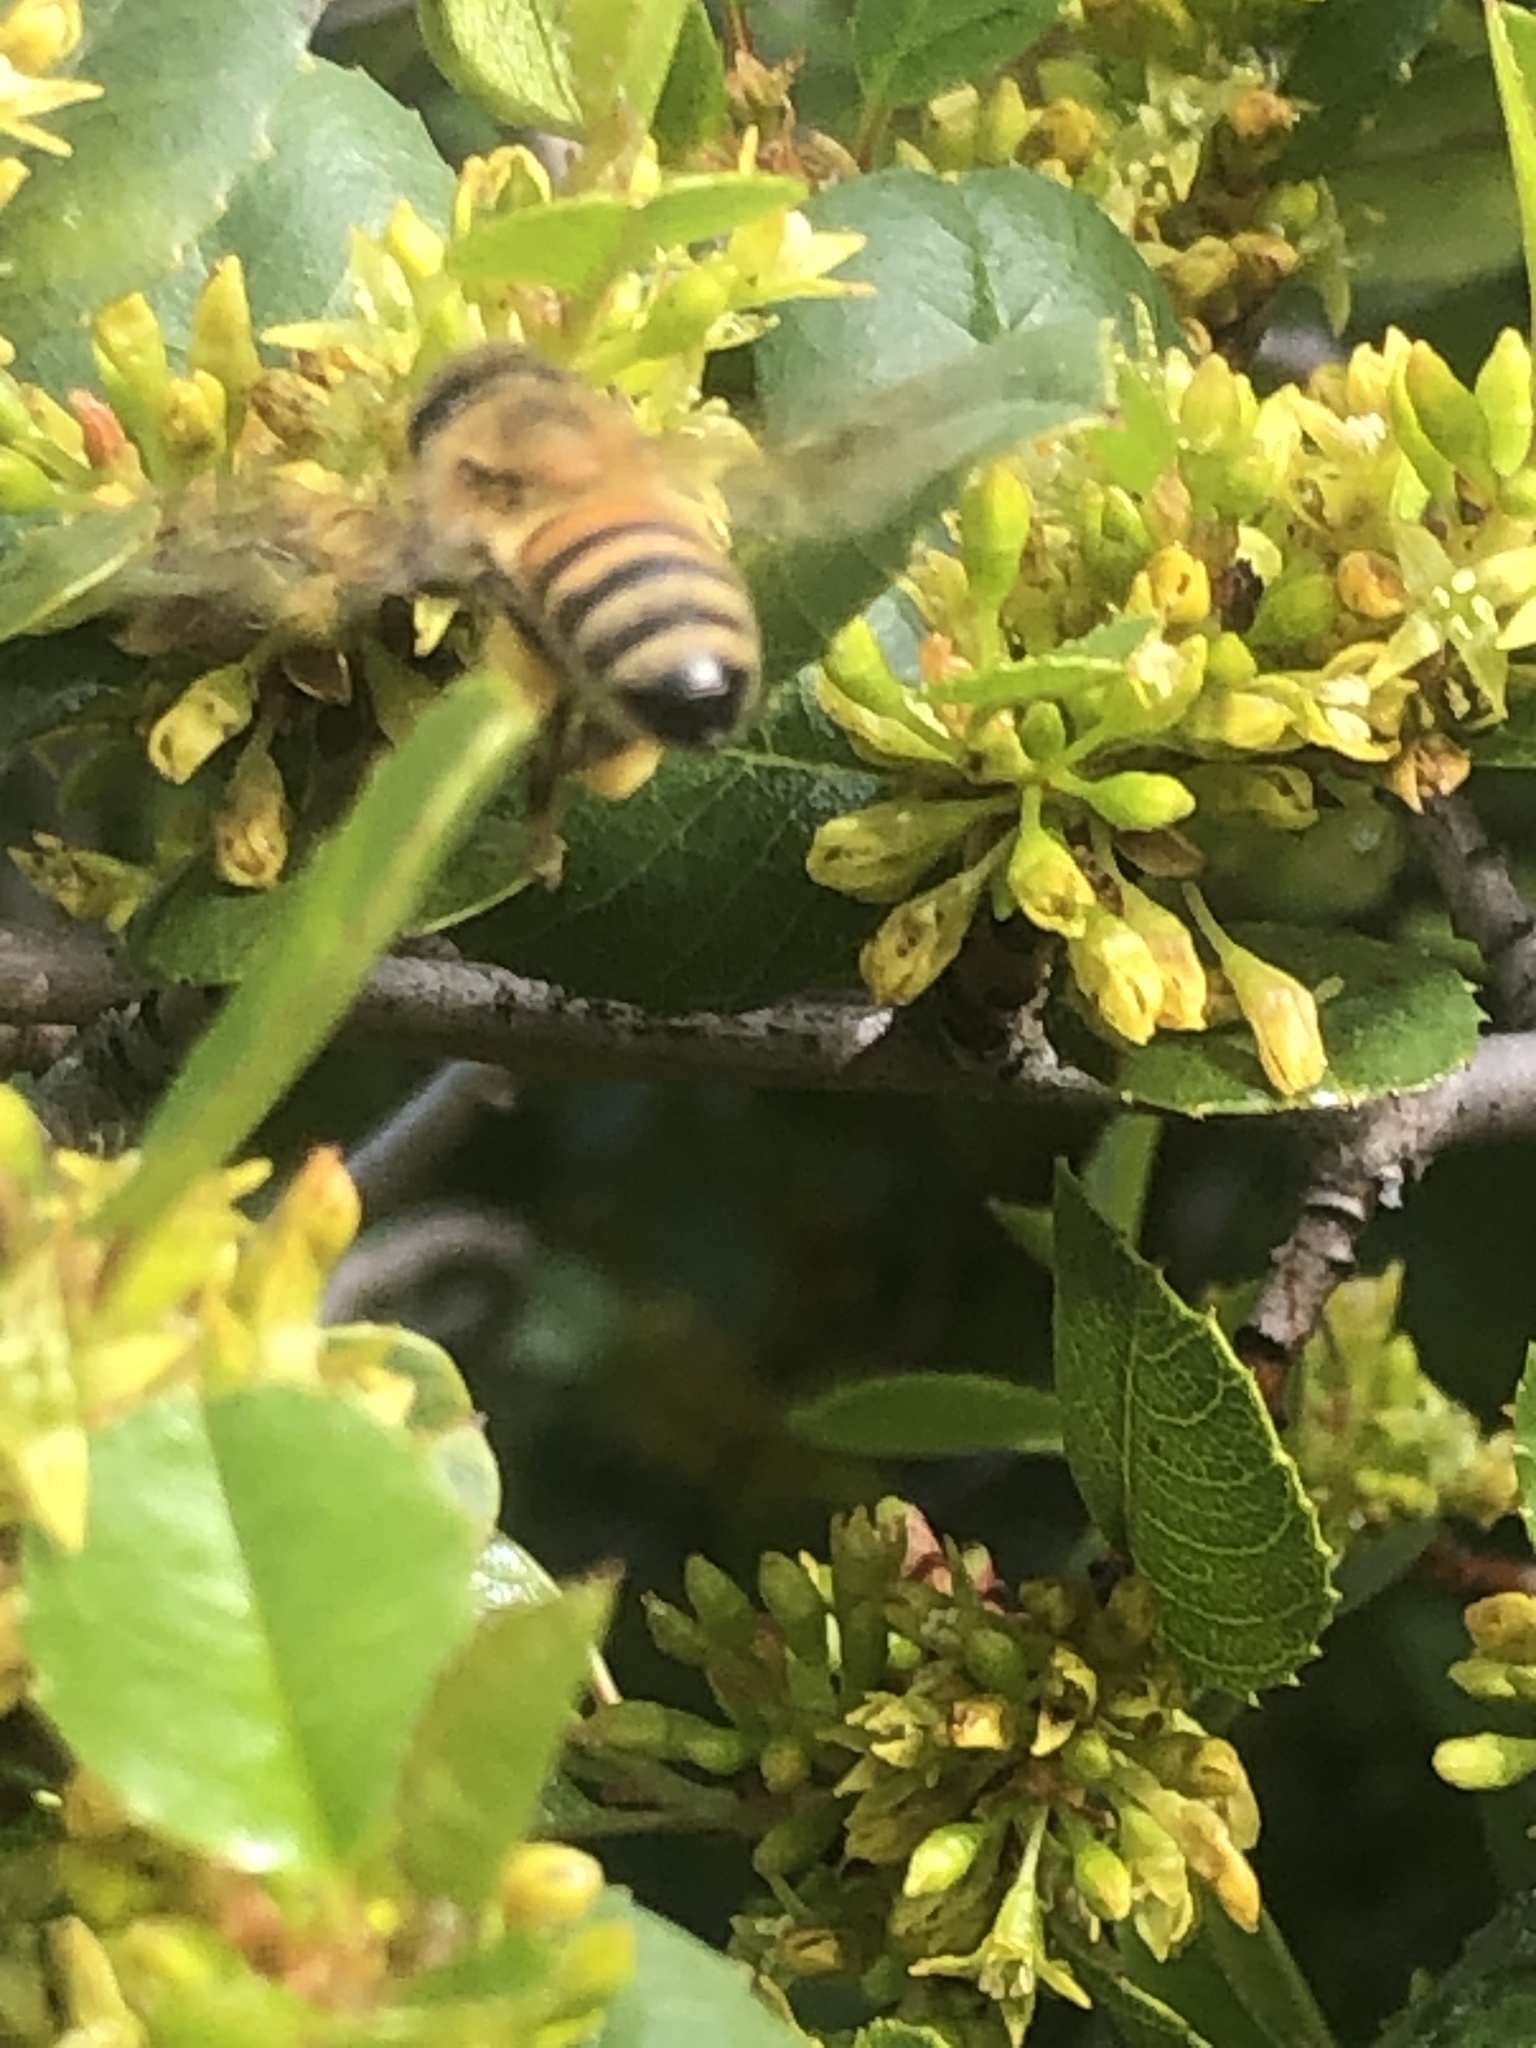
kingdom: Animalia
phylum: Arthropoda
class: Insecta
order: Hymenoptera
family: Apidae
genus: Apis
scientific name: Apis mellifera
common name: Honey bee
